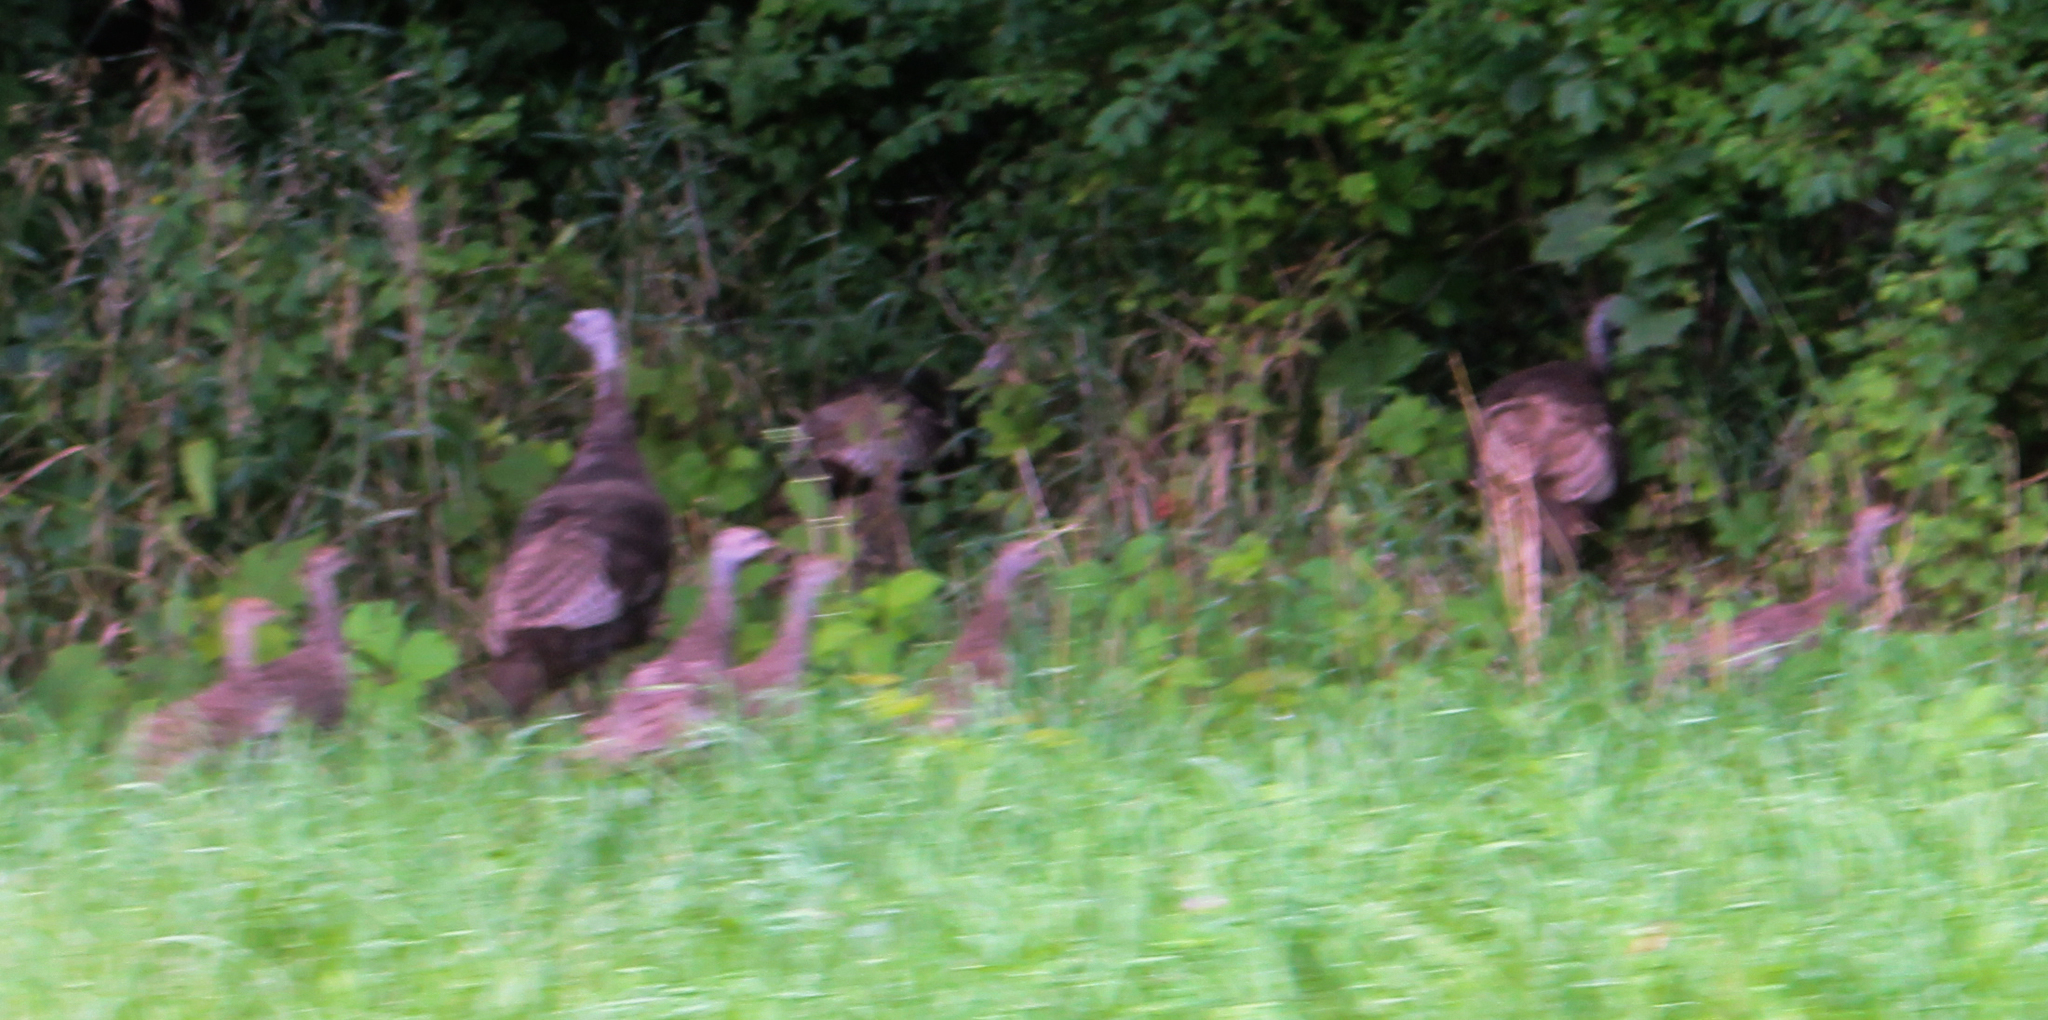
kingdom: Animalia
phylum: Chordata
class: Aves
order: Galliformes
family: Phasianidae
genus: Meleagris
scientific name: Meleagris gallopavo
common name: Wild turkey
